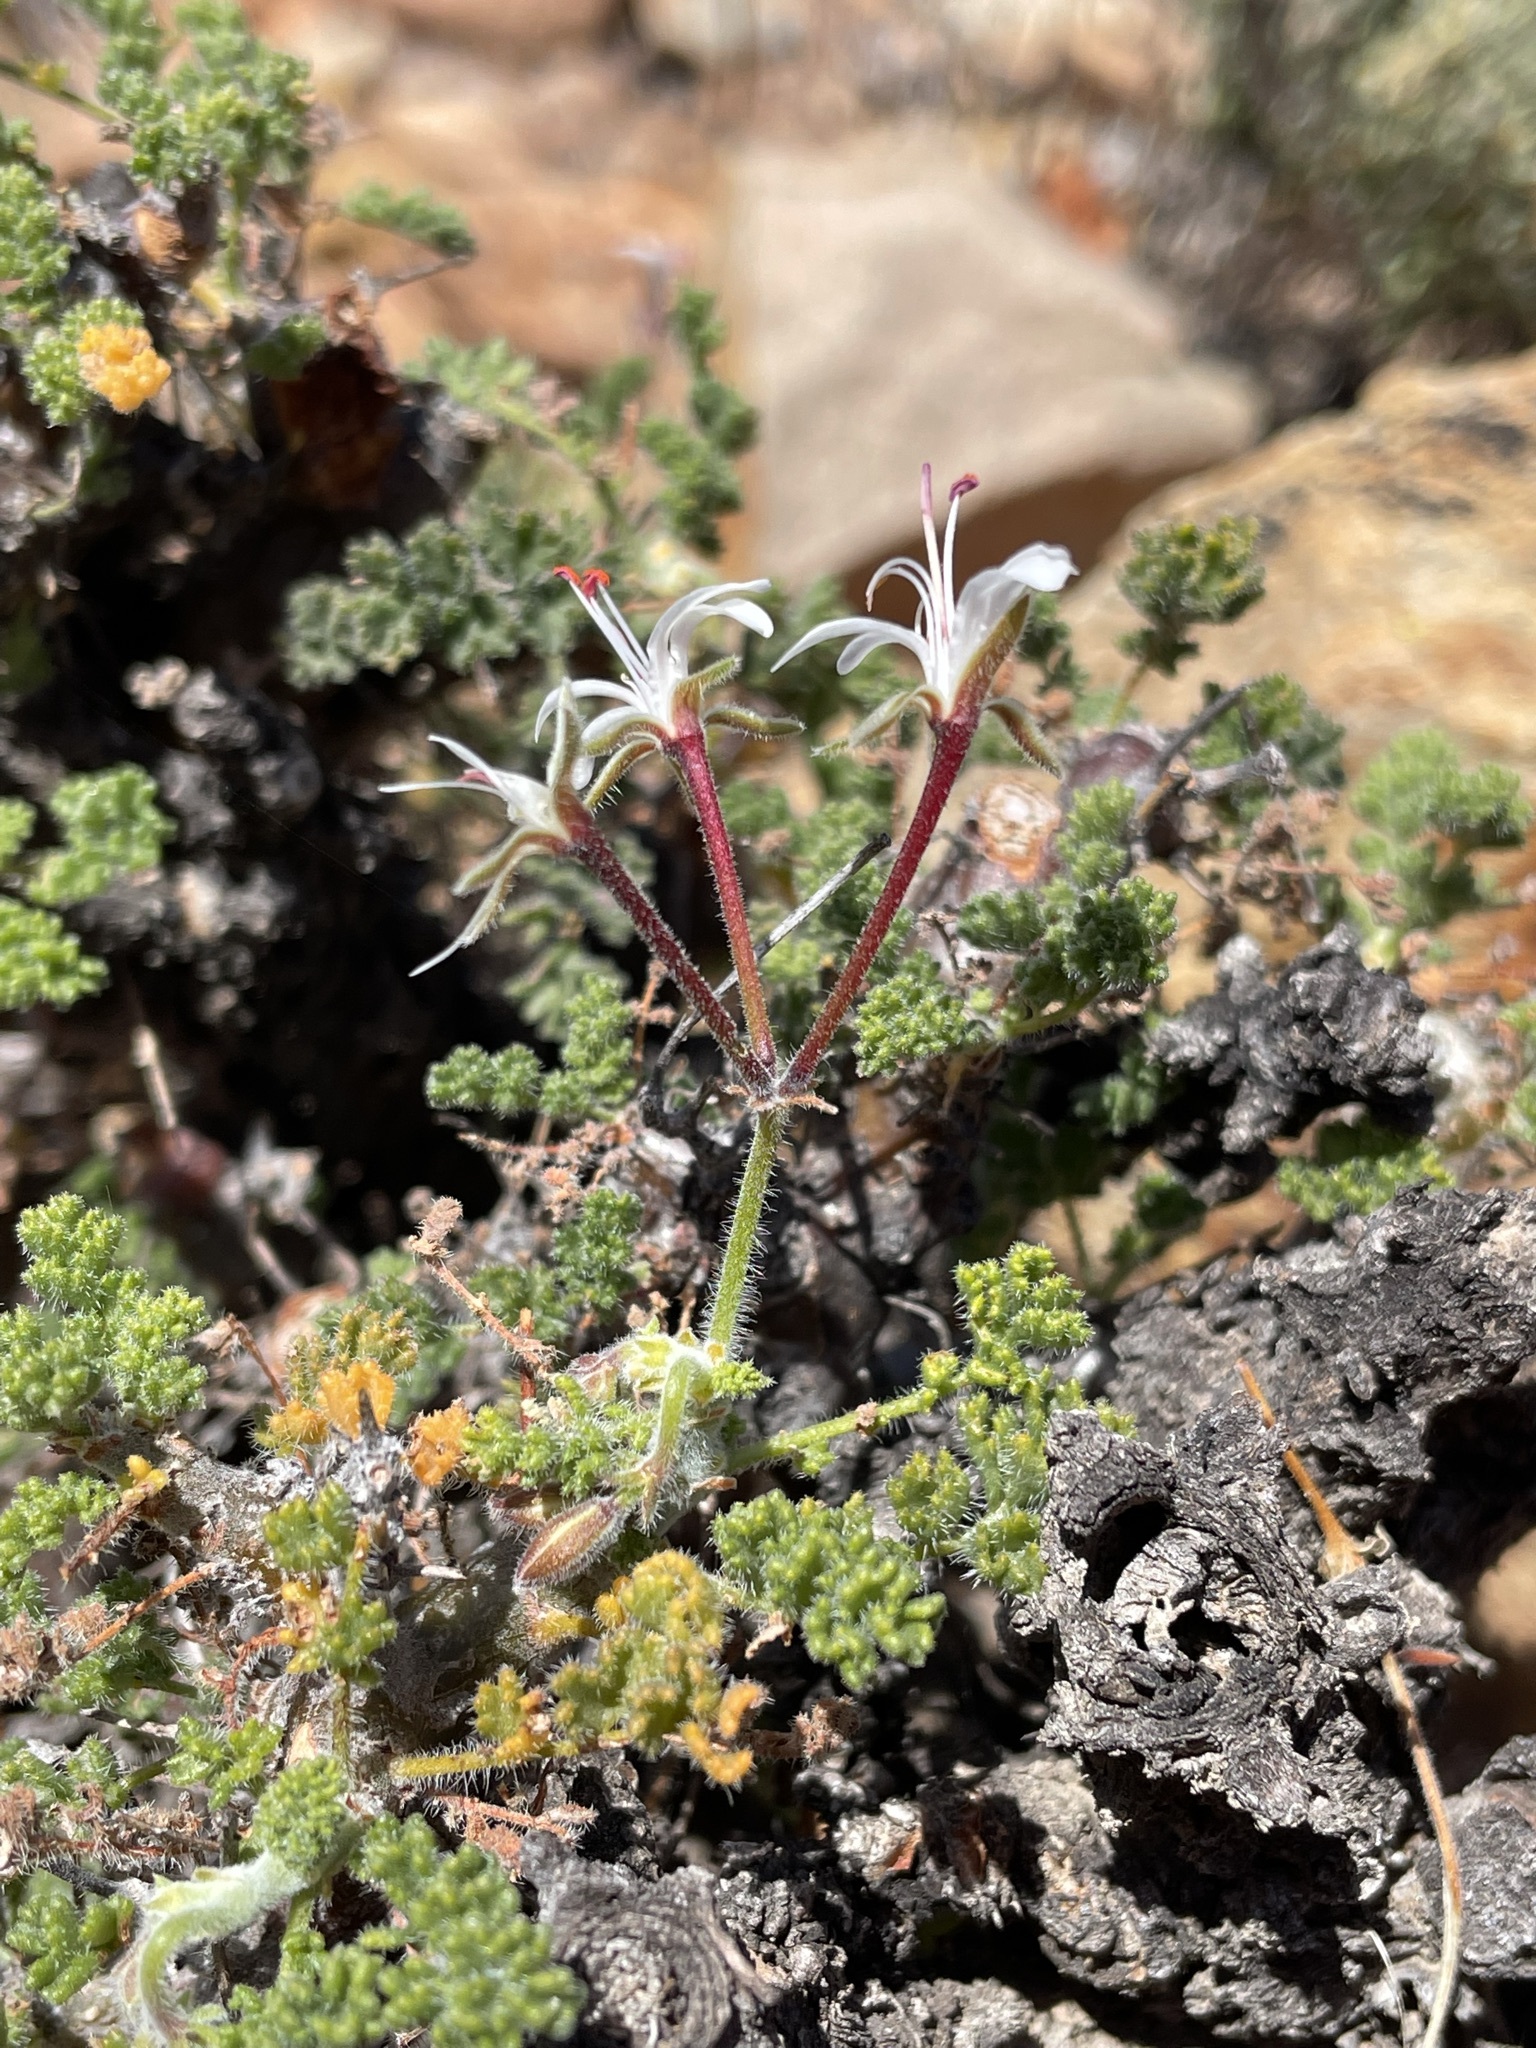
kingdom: Plantae
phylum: Tracheophyta
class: Magnoliopsida
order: Geraniales
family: Geraniaceae
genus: Pelargonium
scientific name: Pelargonium alternans
